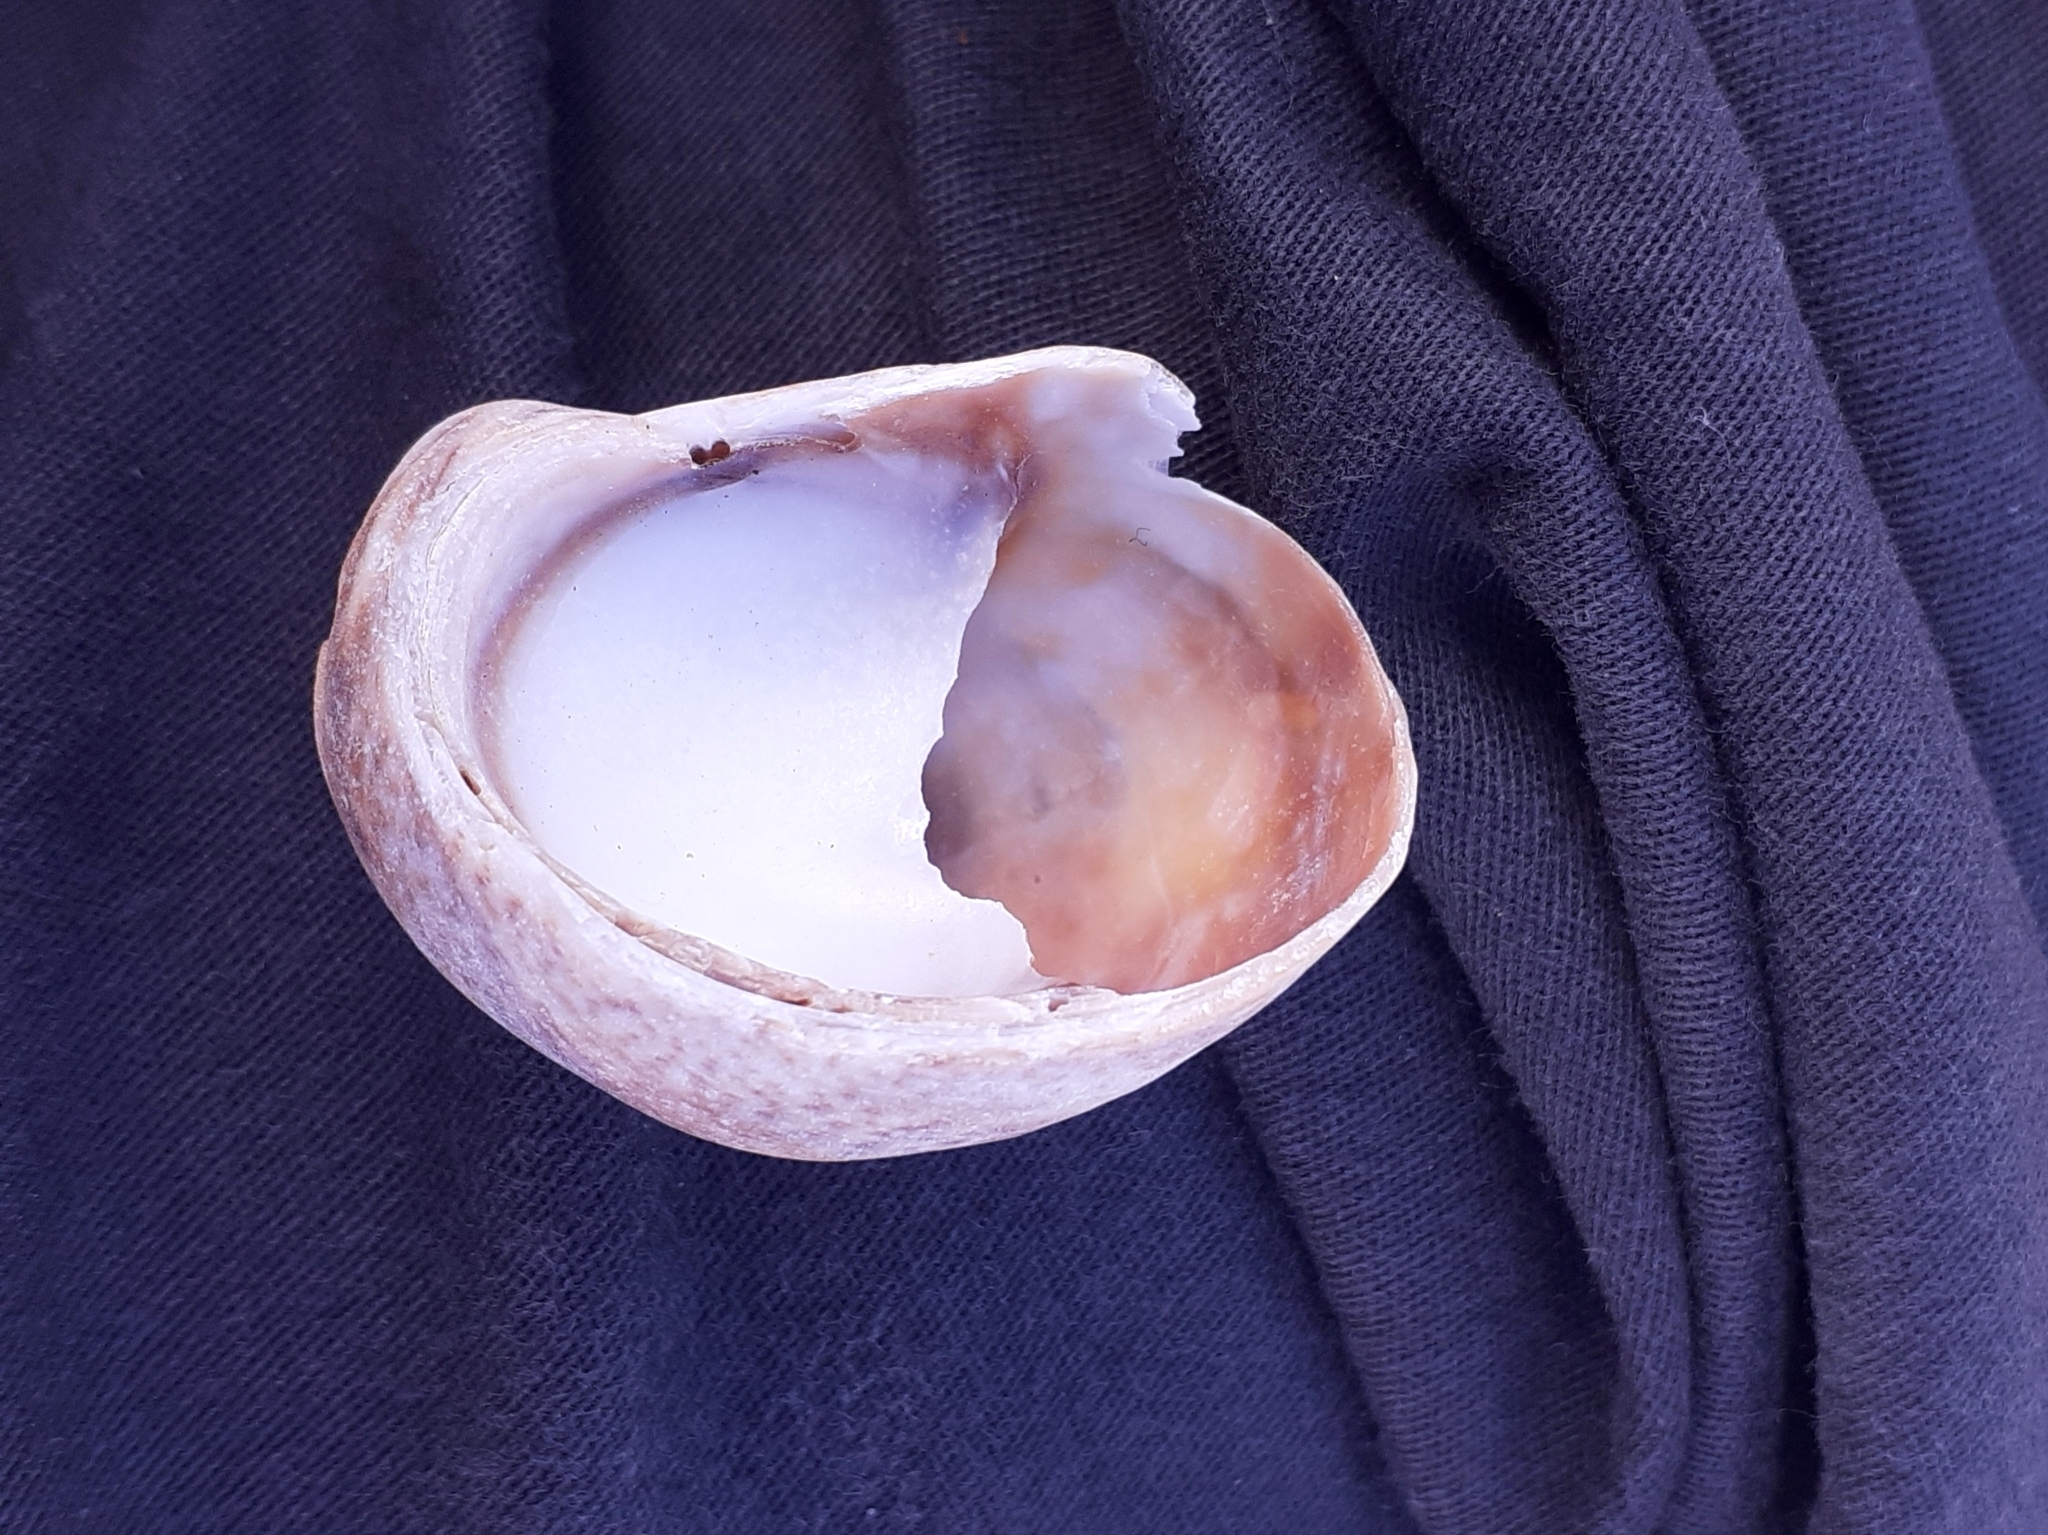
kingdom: Animalia
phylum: Mollusca
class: Gastropoda
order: Littorinimorpha
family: Calyptraeidae
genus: Crepidula
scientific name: Crepidula fornicata
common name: Slipper limpet
